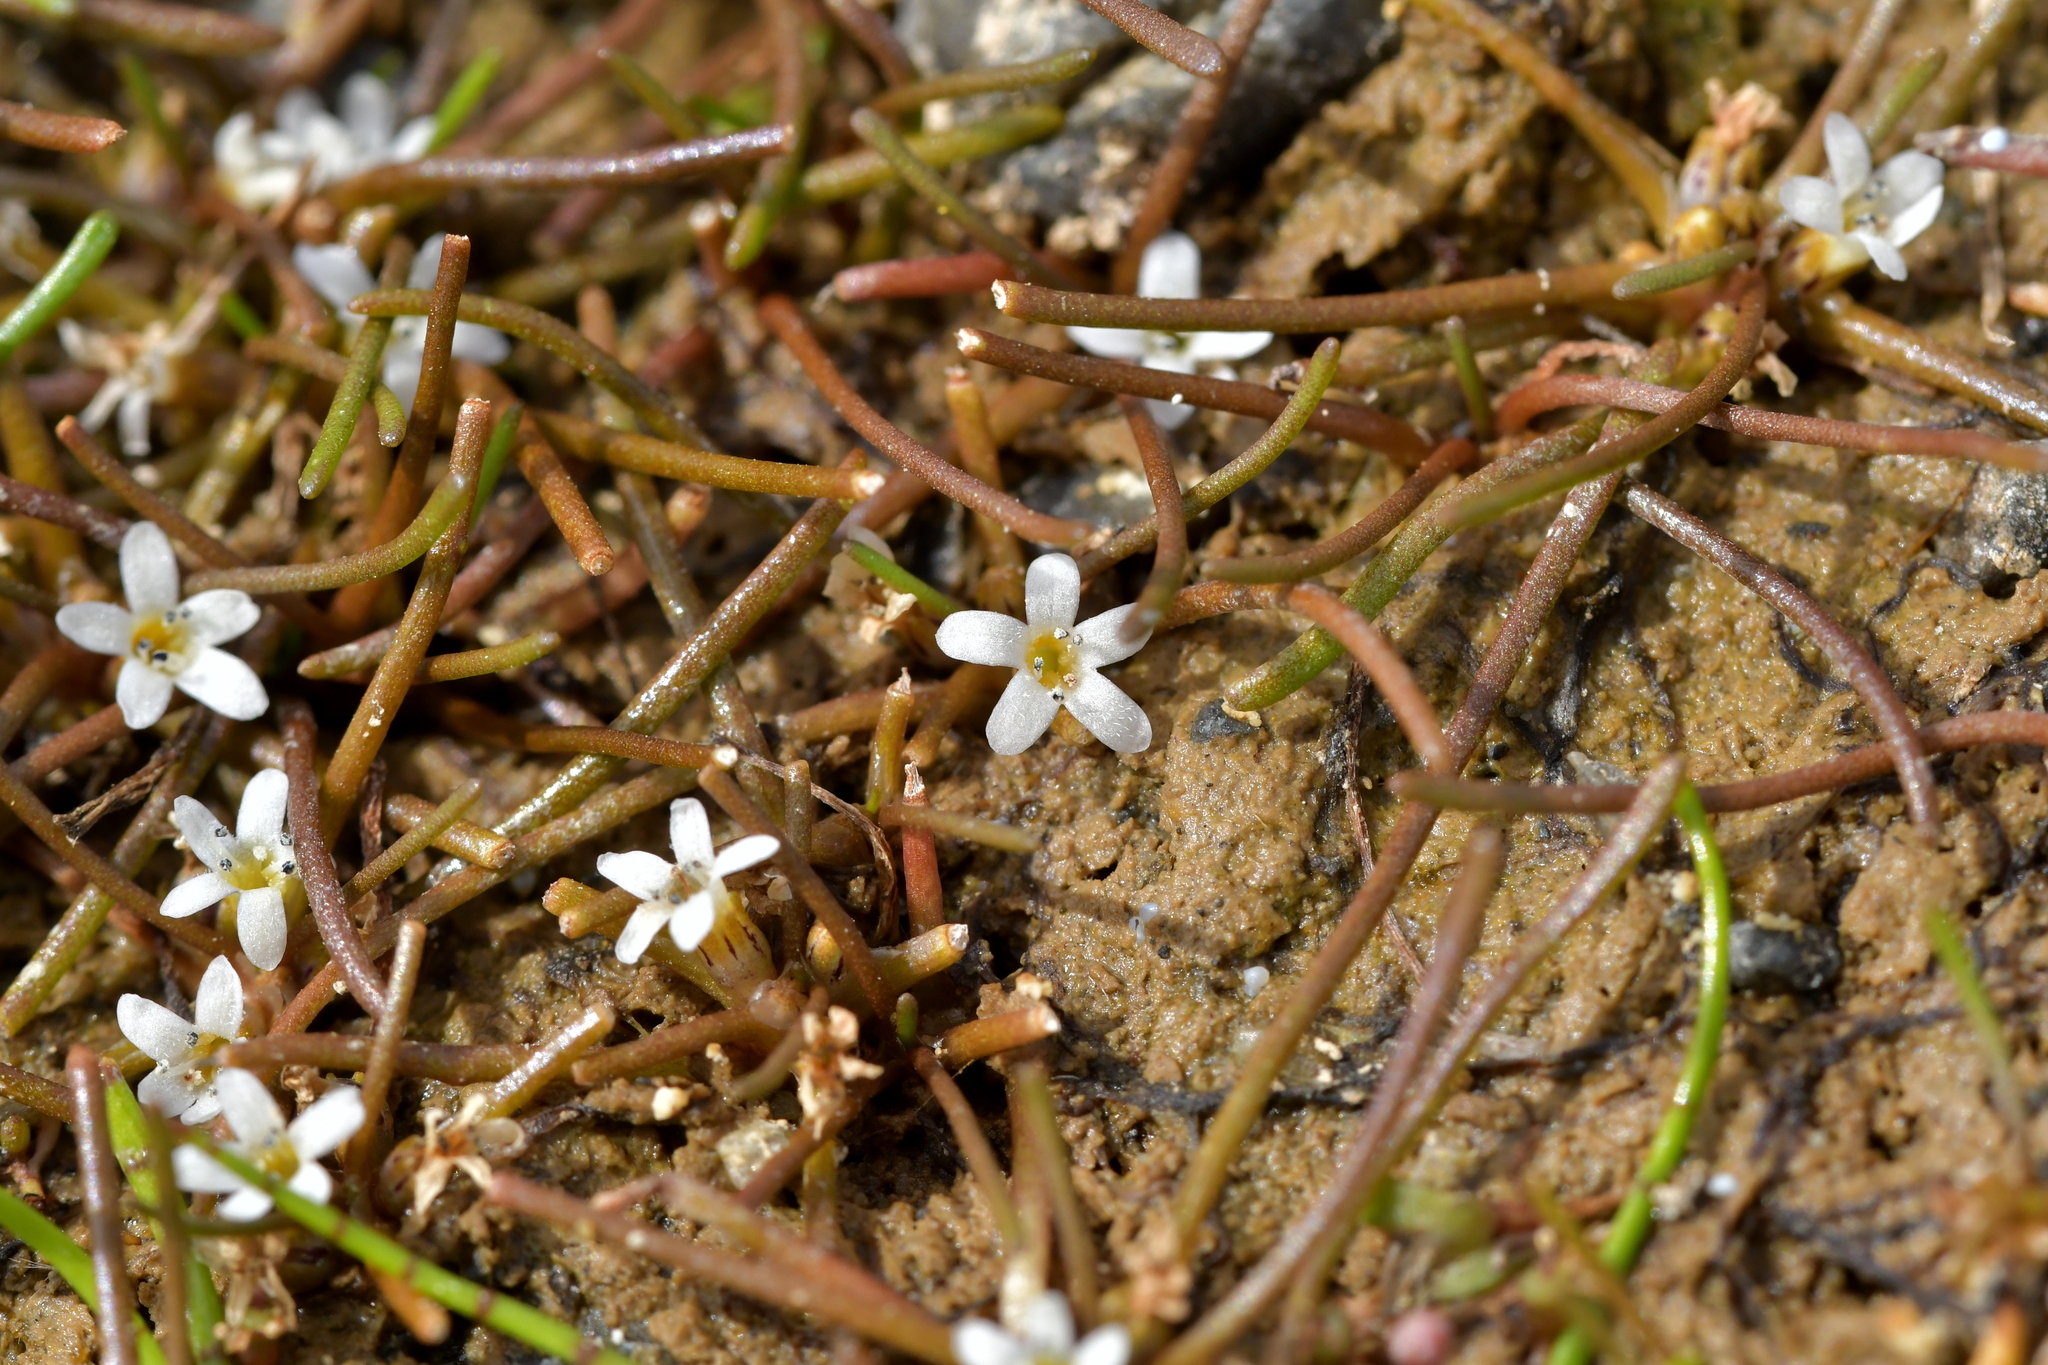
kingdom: Plantae
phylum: Tracheophyta
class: Magnoliopsida
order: Lamiales
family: Scrophulariaceae
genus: Limosella
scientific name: Limosella australis
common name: Welsh mudwort
